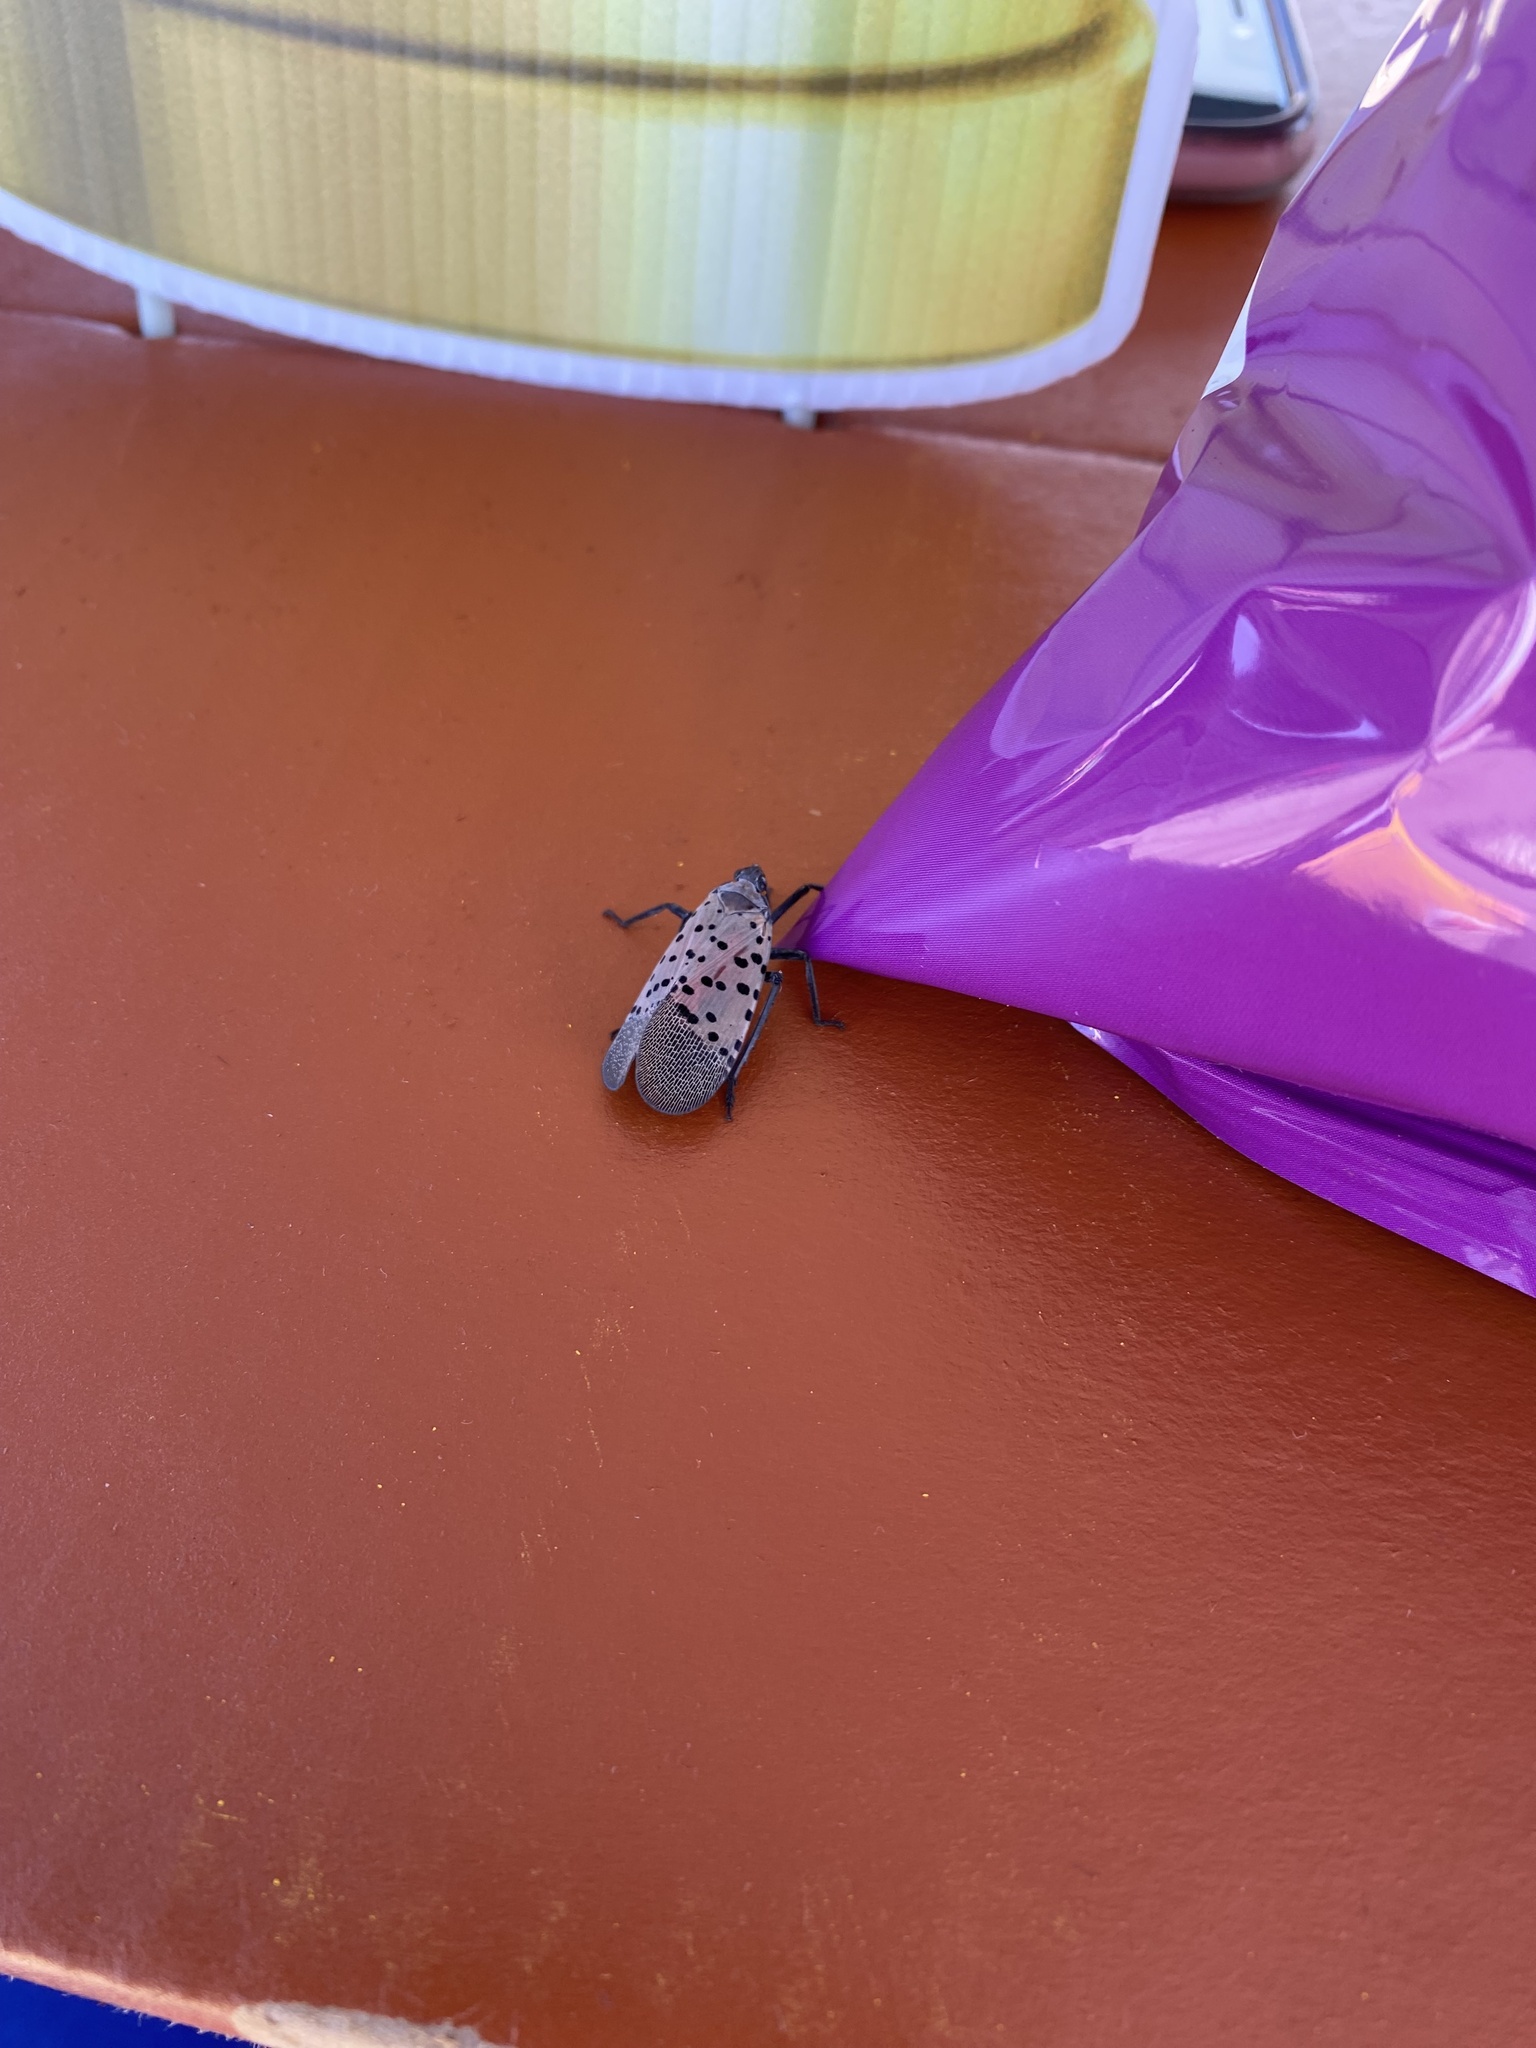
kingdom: Animalia
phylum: Arthropoda
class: Insecta
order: Hemiptera
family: Fulgoridae
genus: Lycorma
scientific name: Lycorma delicatula
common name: Spotted lanternfly
